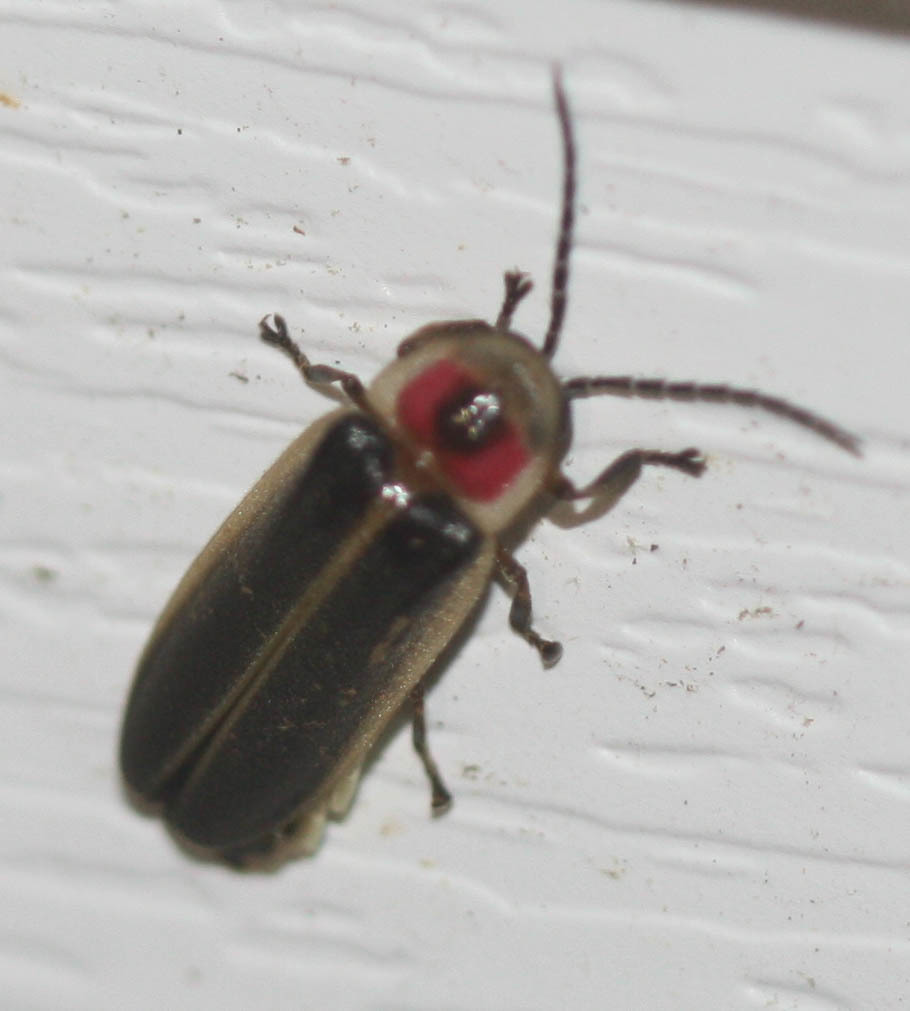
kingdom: Animalia
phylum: Arthropoda
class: Insecta
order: Coleoptera
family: Lampyridae
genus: Photinus
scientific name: Photinus pyralis
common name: Big dipper firefly
